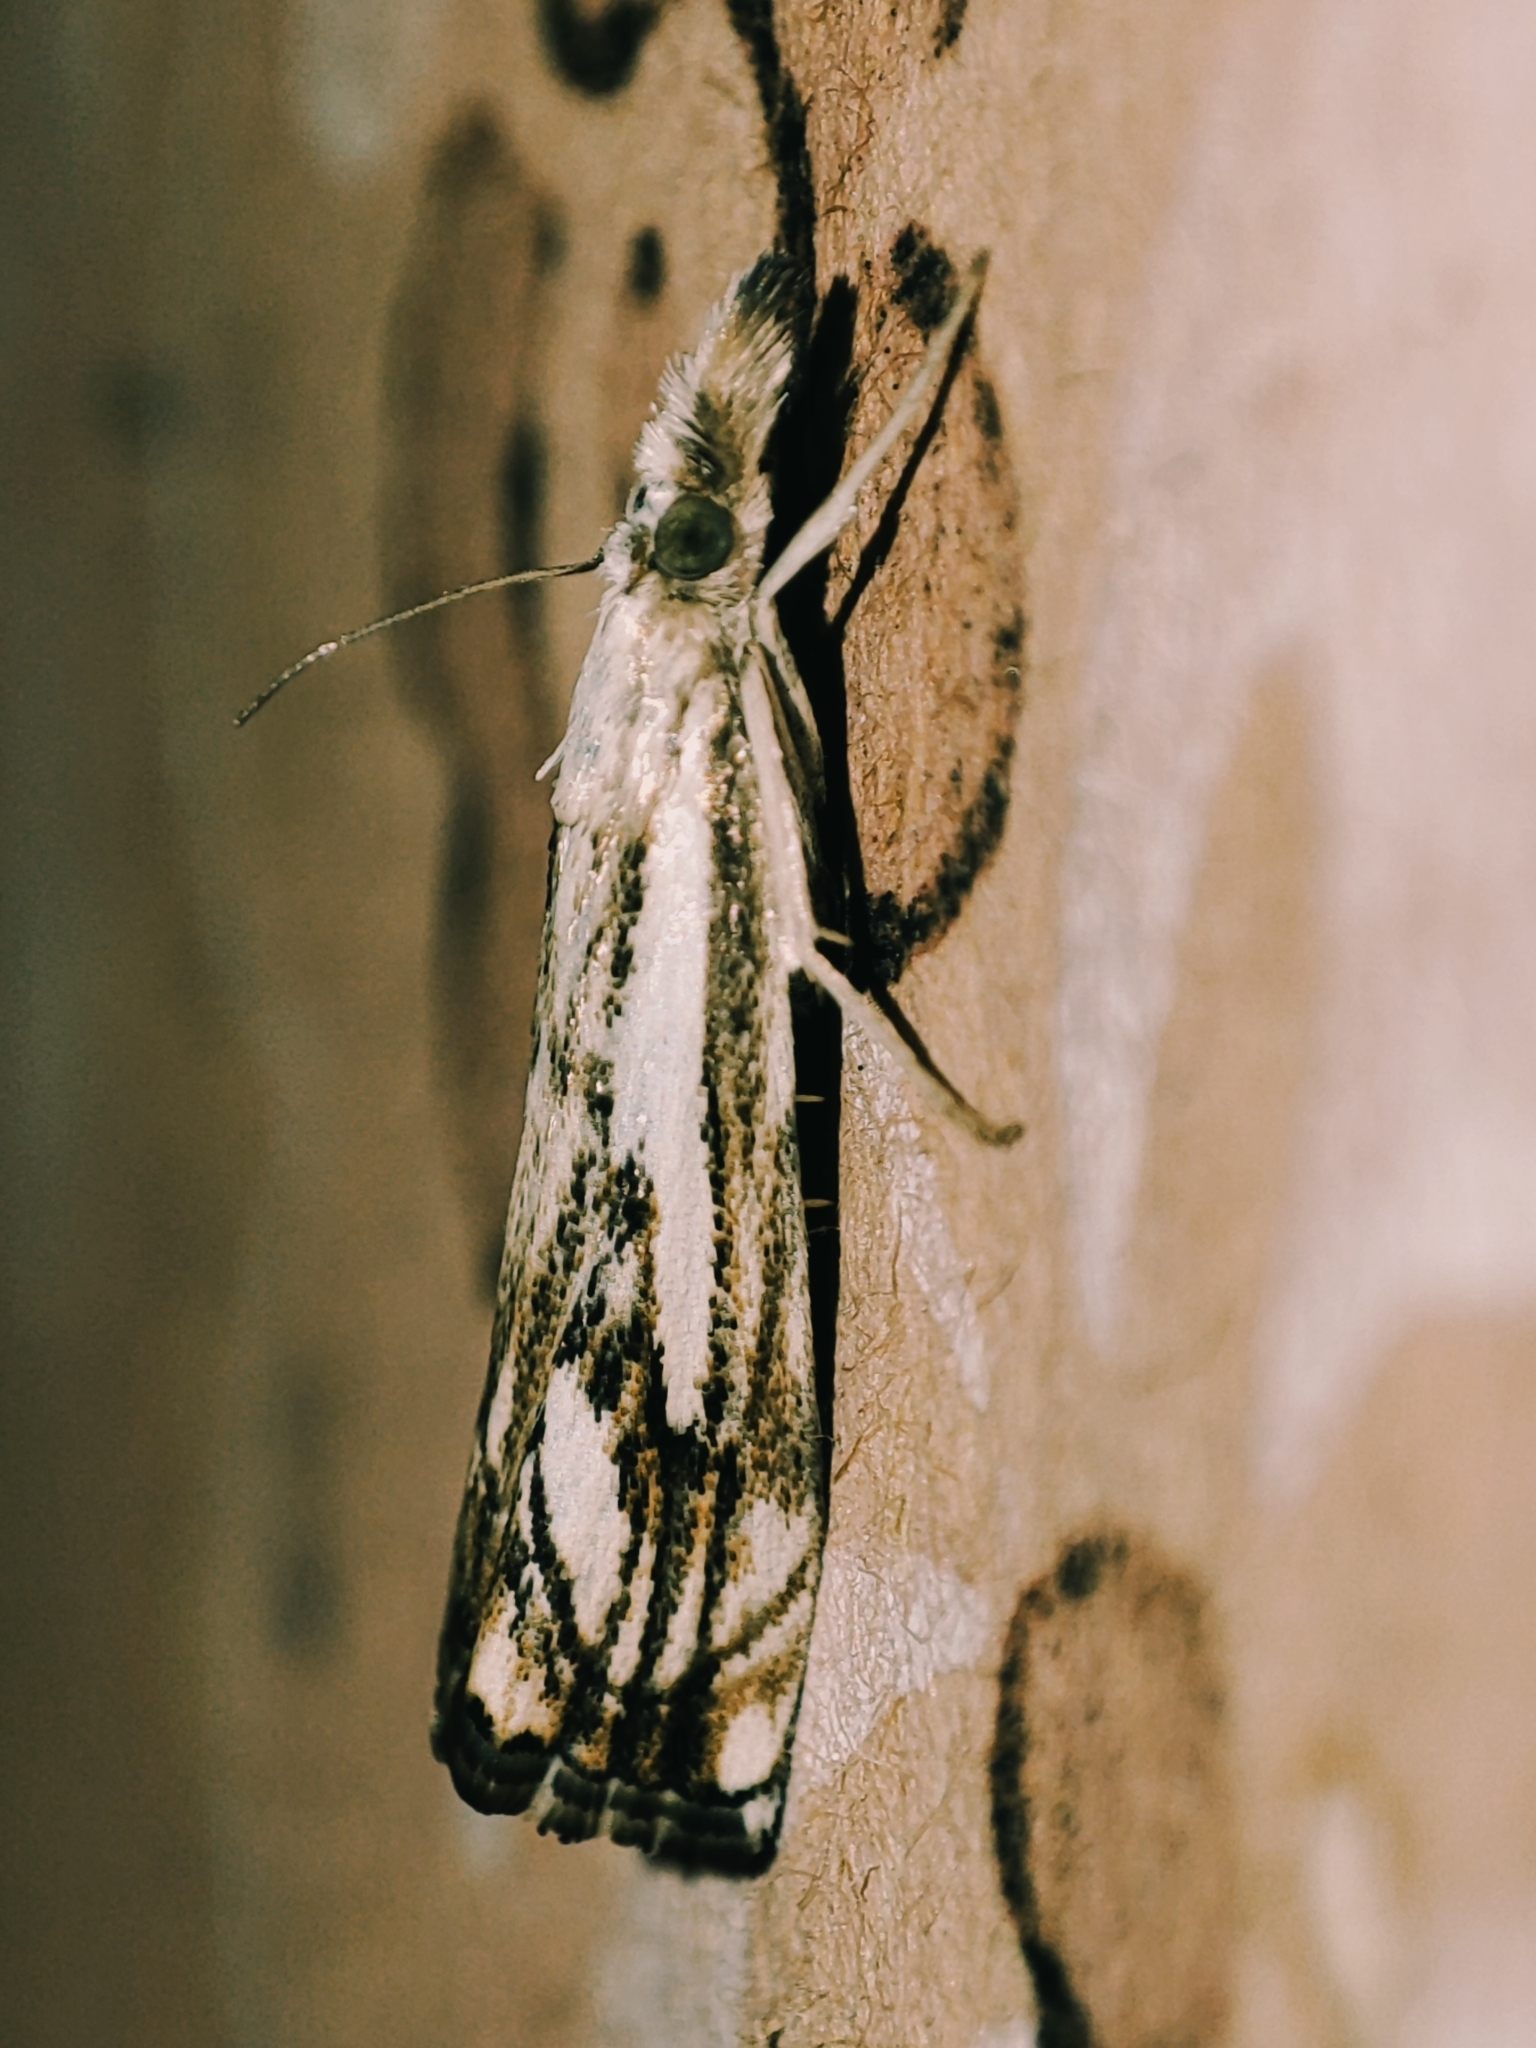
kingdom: Animalia
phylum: Arthropoda
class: Insecta
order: Lepidoptera
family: Crambidae
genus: Catoptria
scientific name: Catoptria falsella
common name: Chequered grass-veneer
